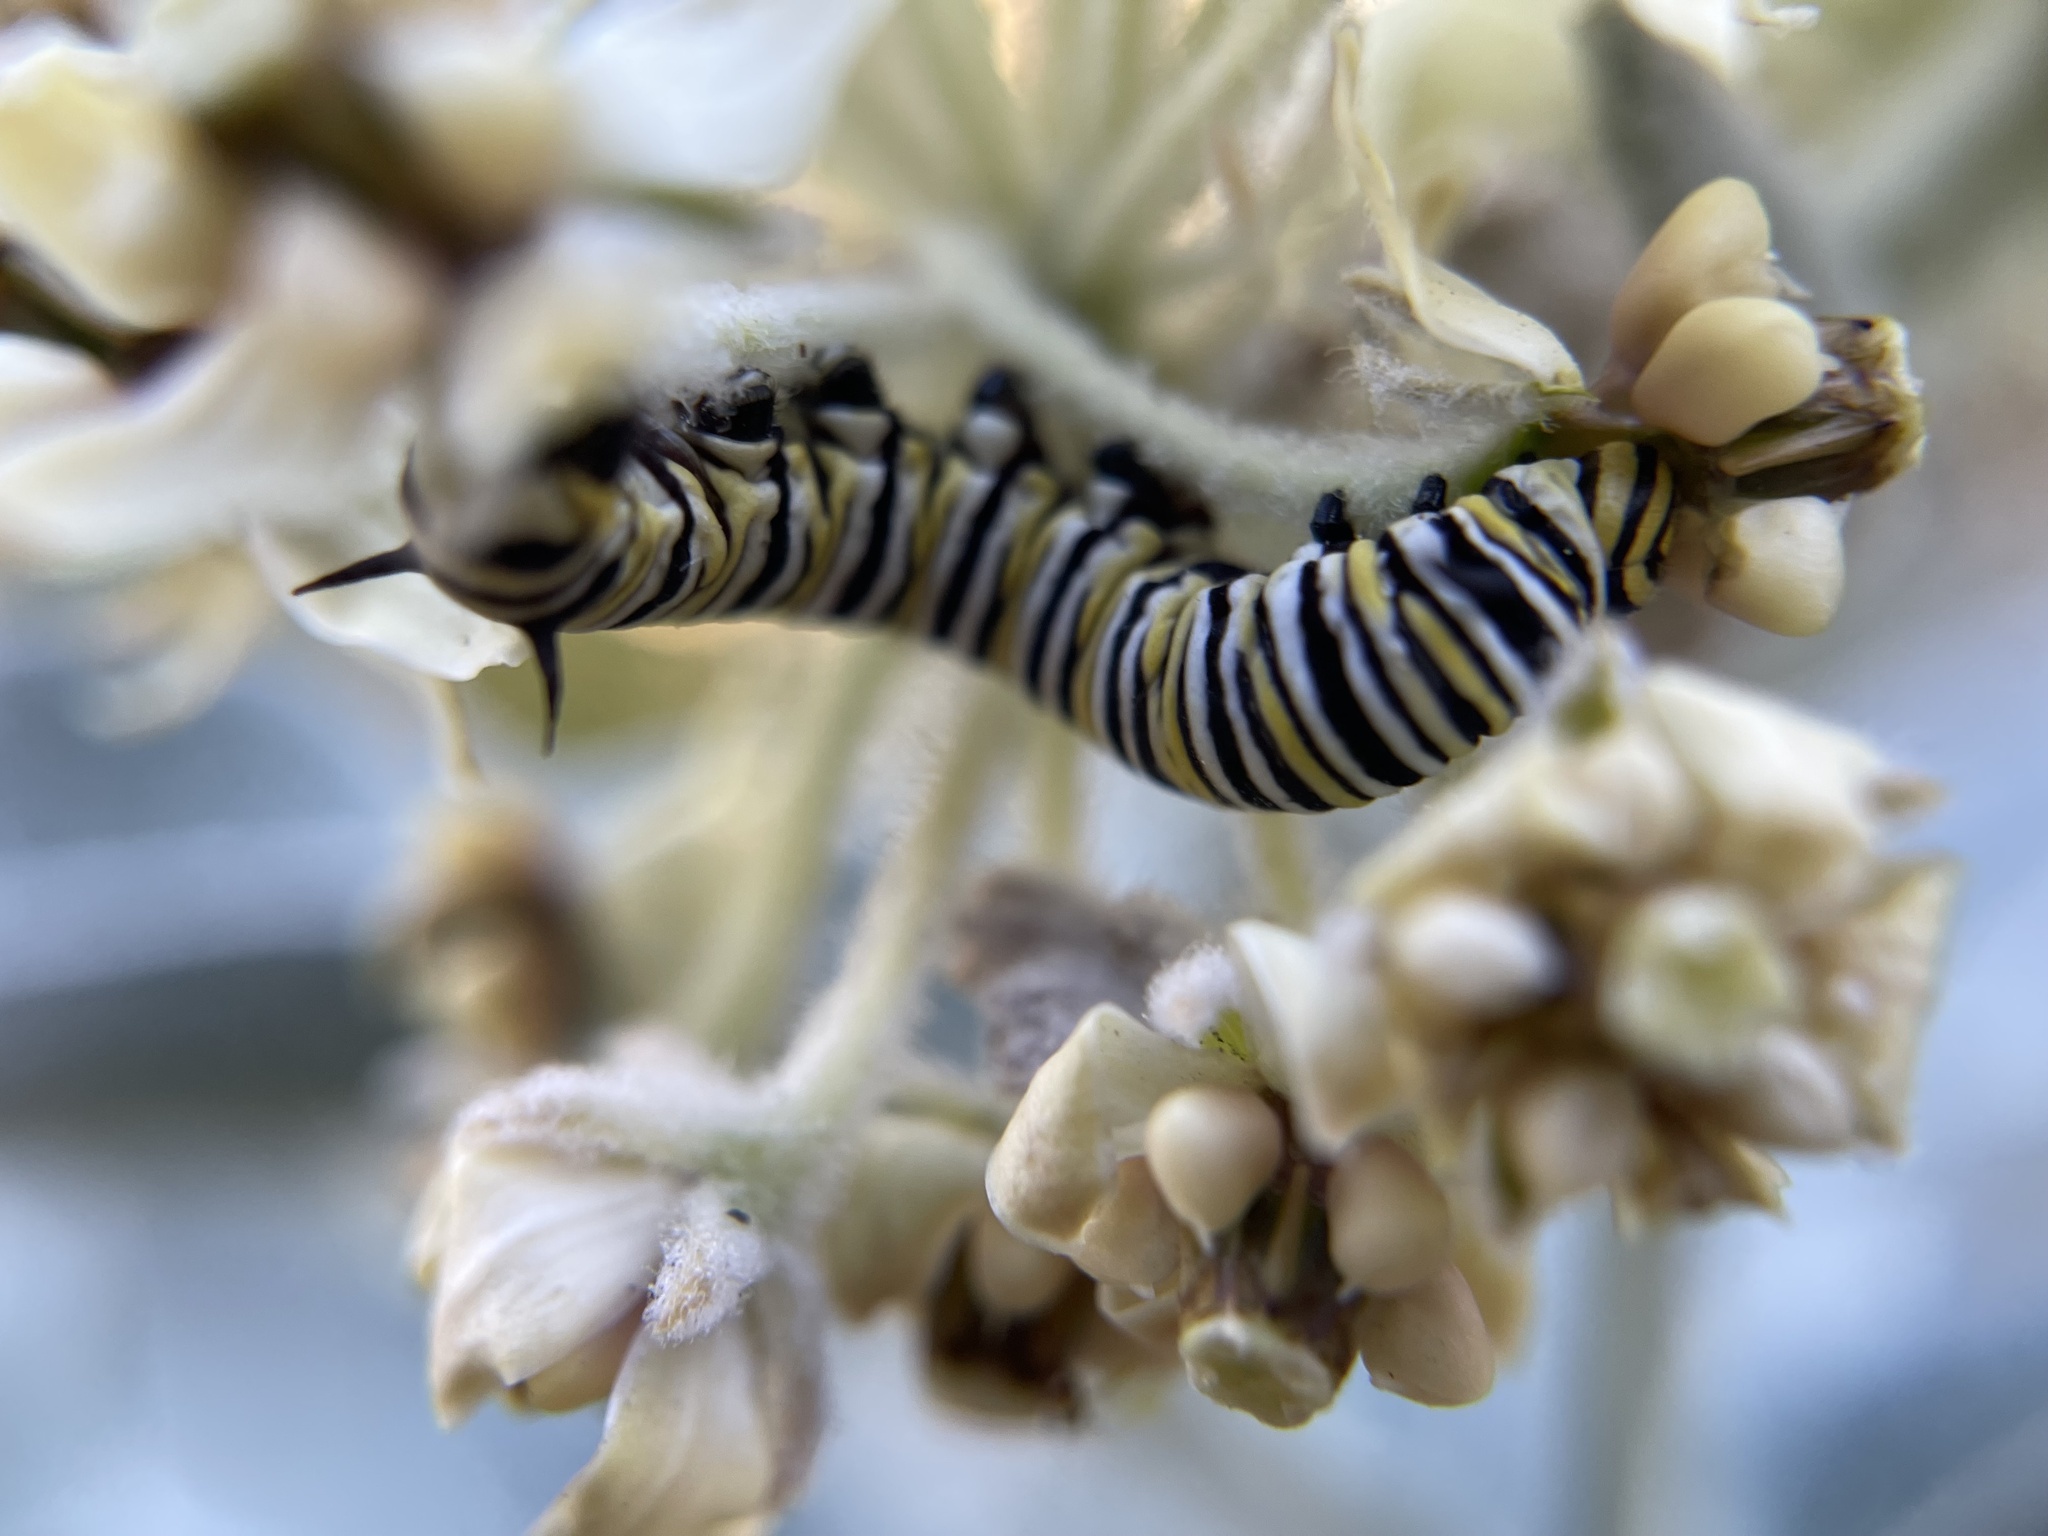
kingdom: Animalia
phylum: Arthropoda
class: Insecta
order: Lepidoptera
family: Nymphalidae
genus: Danaus
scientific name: Danaus plexippus
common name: Monarch
